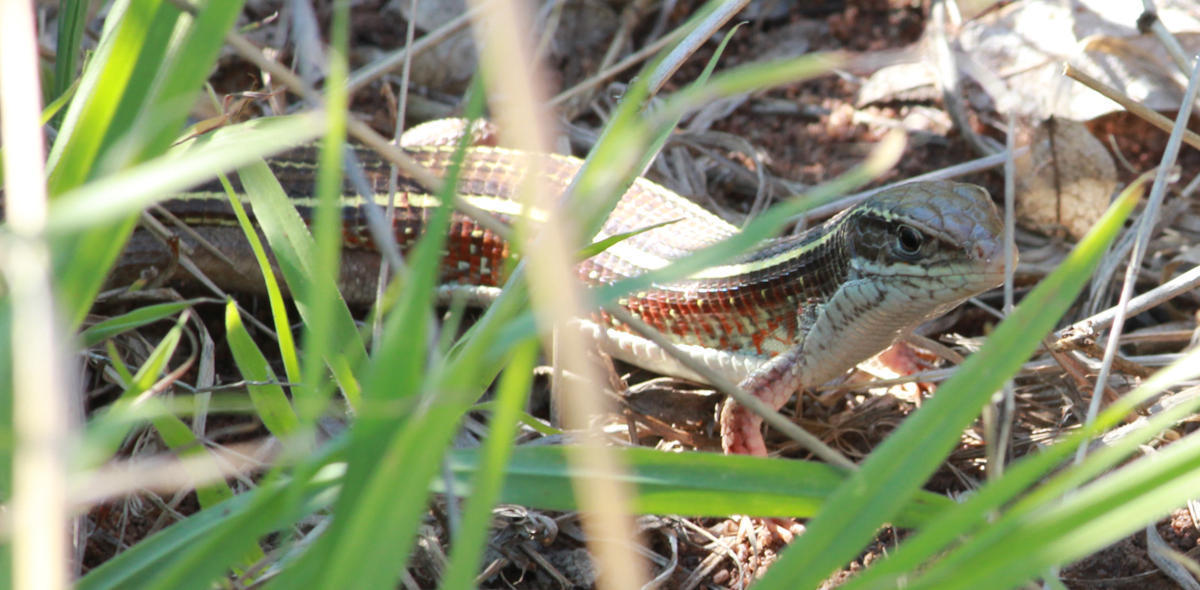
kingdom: Animalia
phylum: Chordata
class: Squamata
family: Gerrhosauridae
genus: Gerrhosaurus
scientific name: Gerrhosaurus flavigularis
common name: Yellow-throated plated lizard
